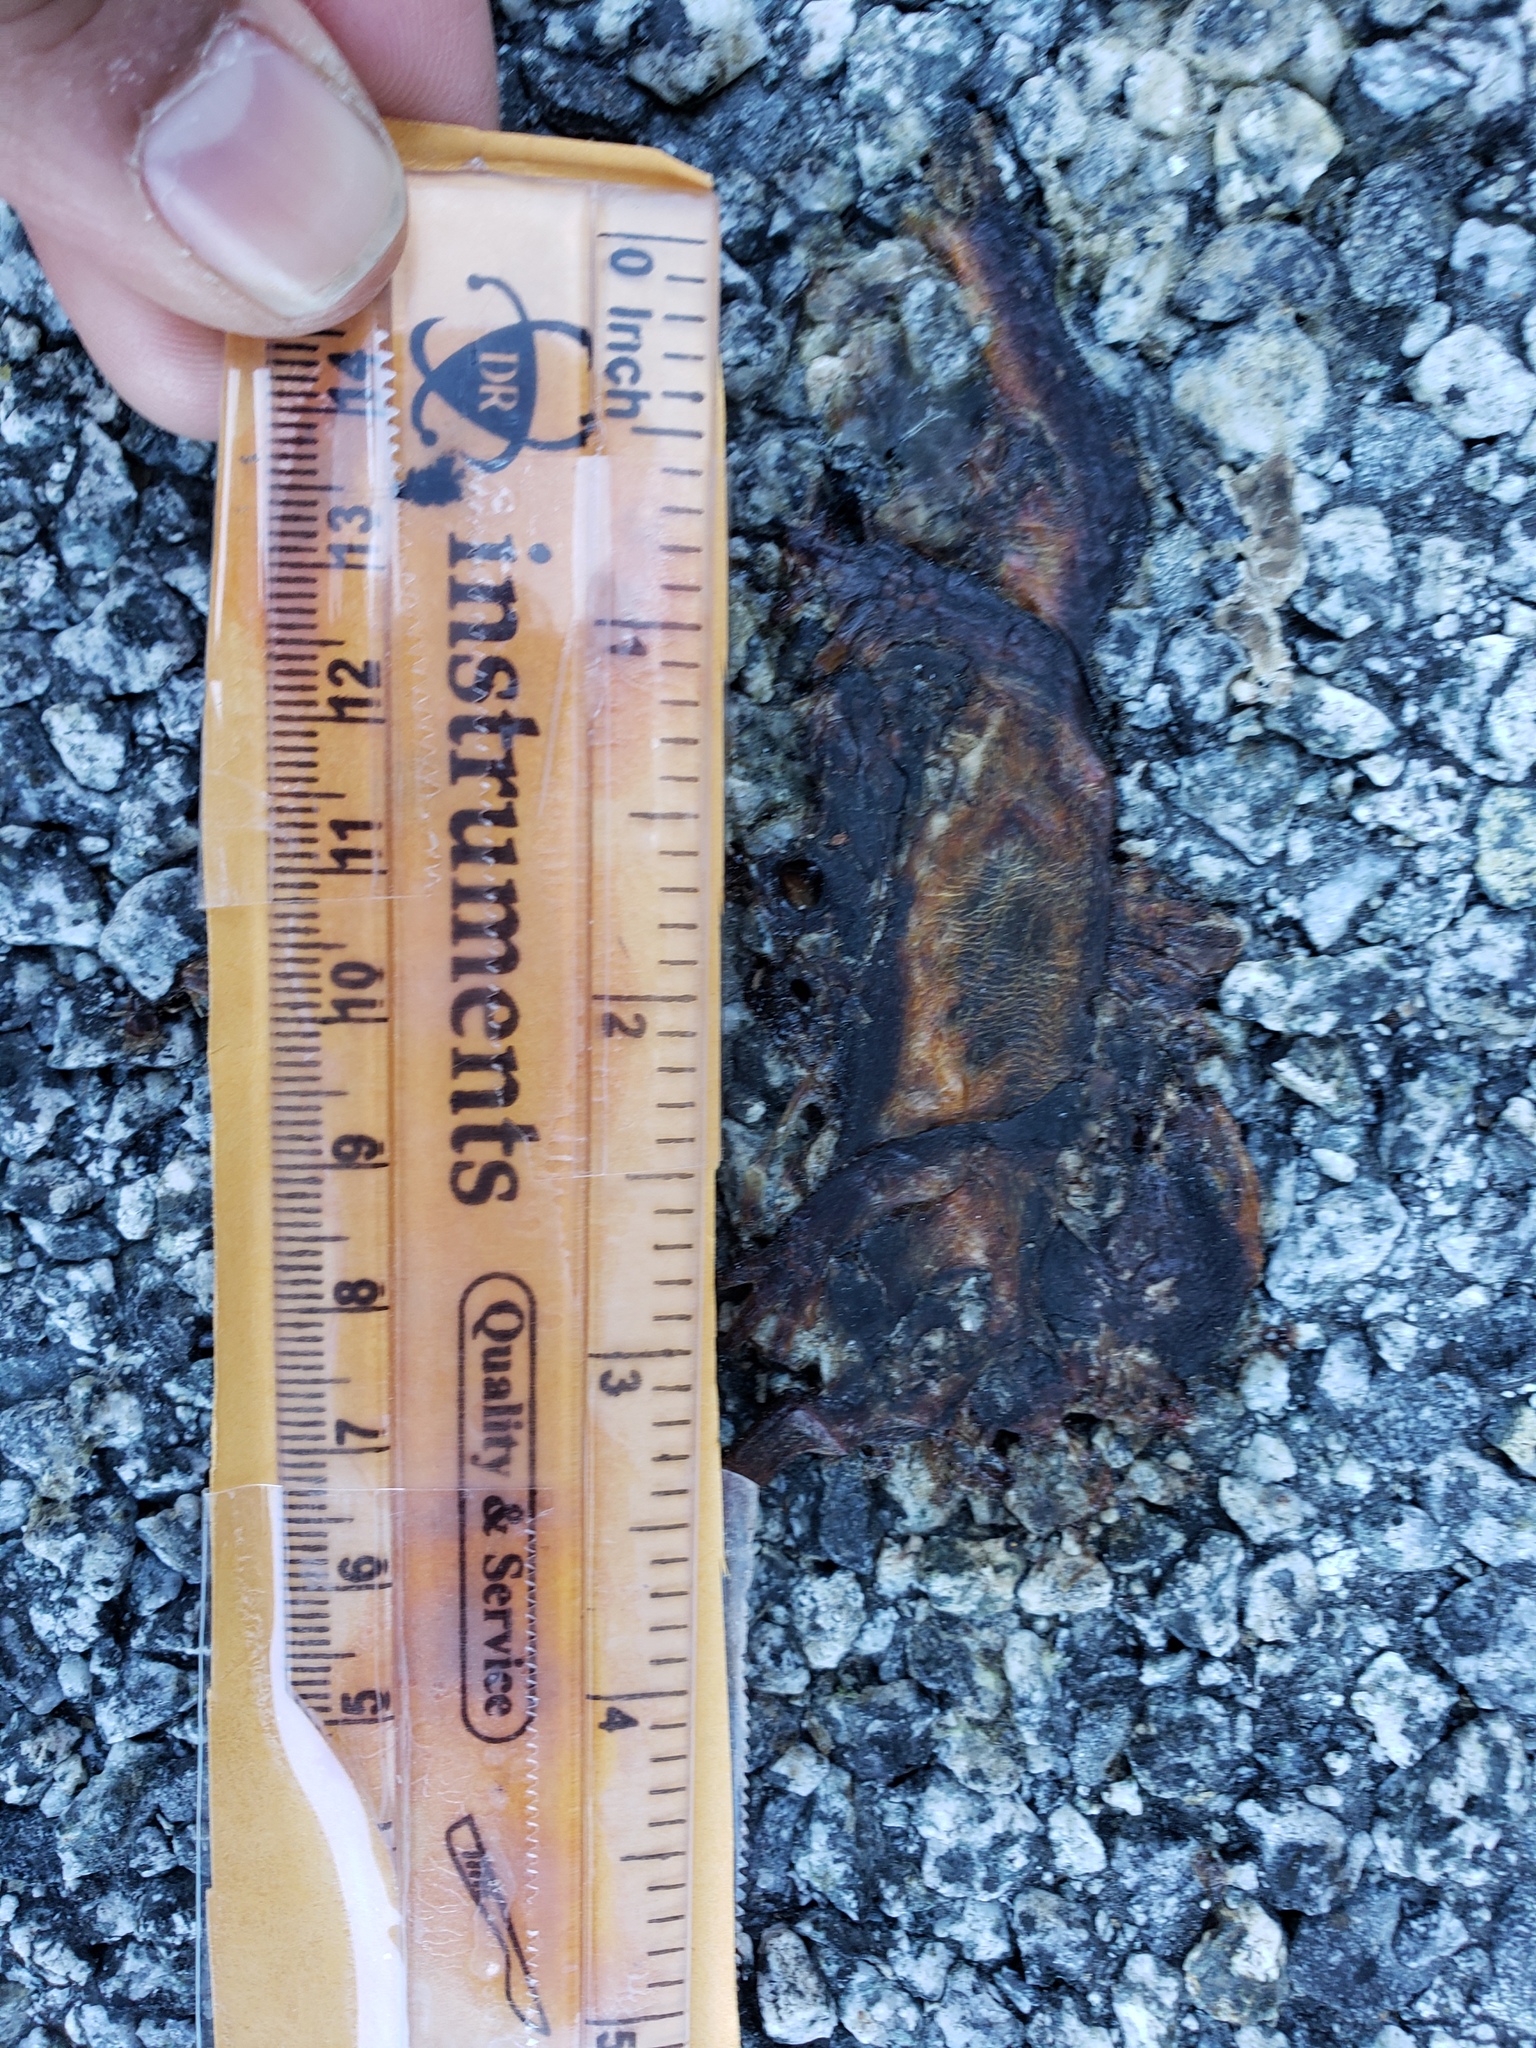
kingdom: Animalia
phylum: Chordata
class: Amphibia
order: Caudata
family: Salamandridae
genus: Taricha
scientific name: Taricha
